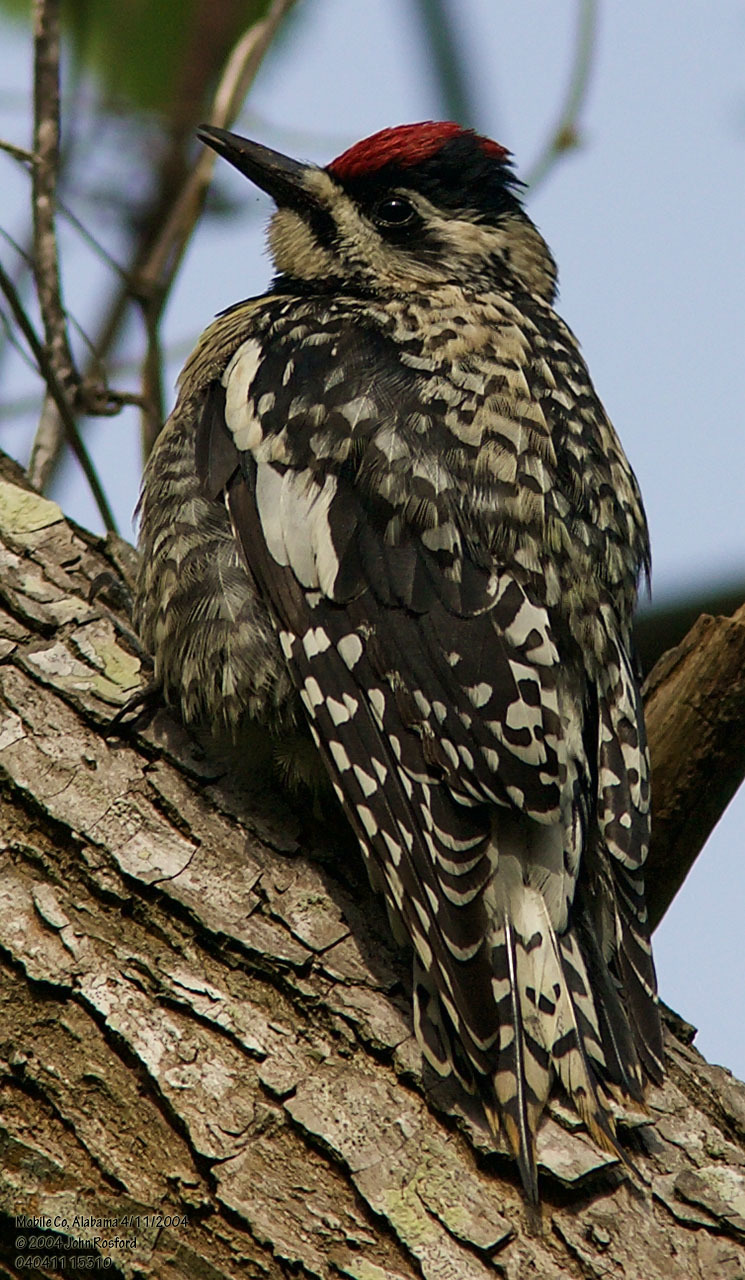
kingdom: Animalia
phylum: Chordata
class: Aves
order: Piciformes
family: Picidae
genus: Sphyrapicus
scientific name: Sphyrapicus varius
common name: Yellow-bellied sapsucker
